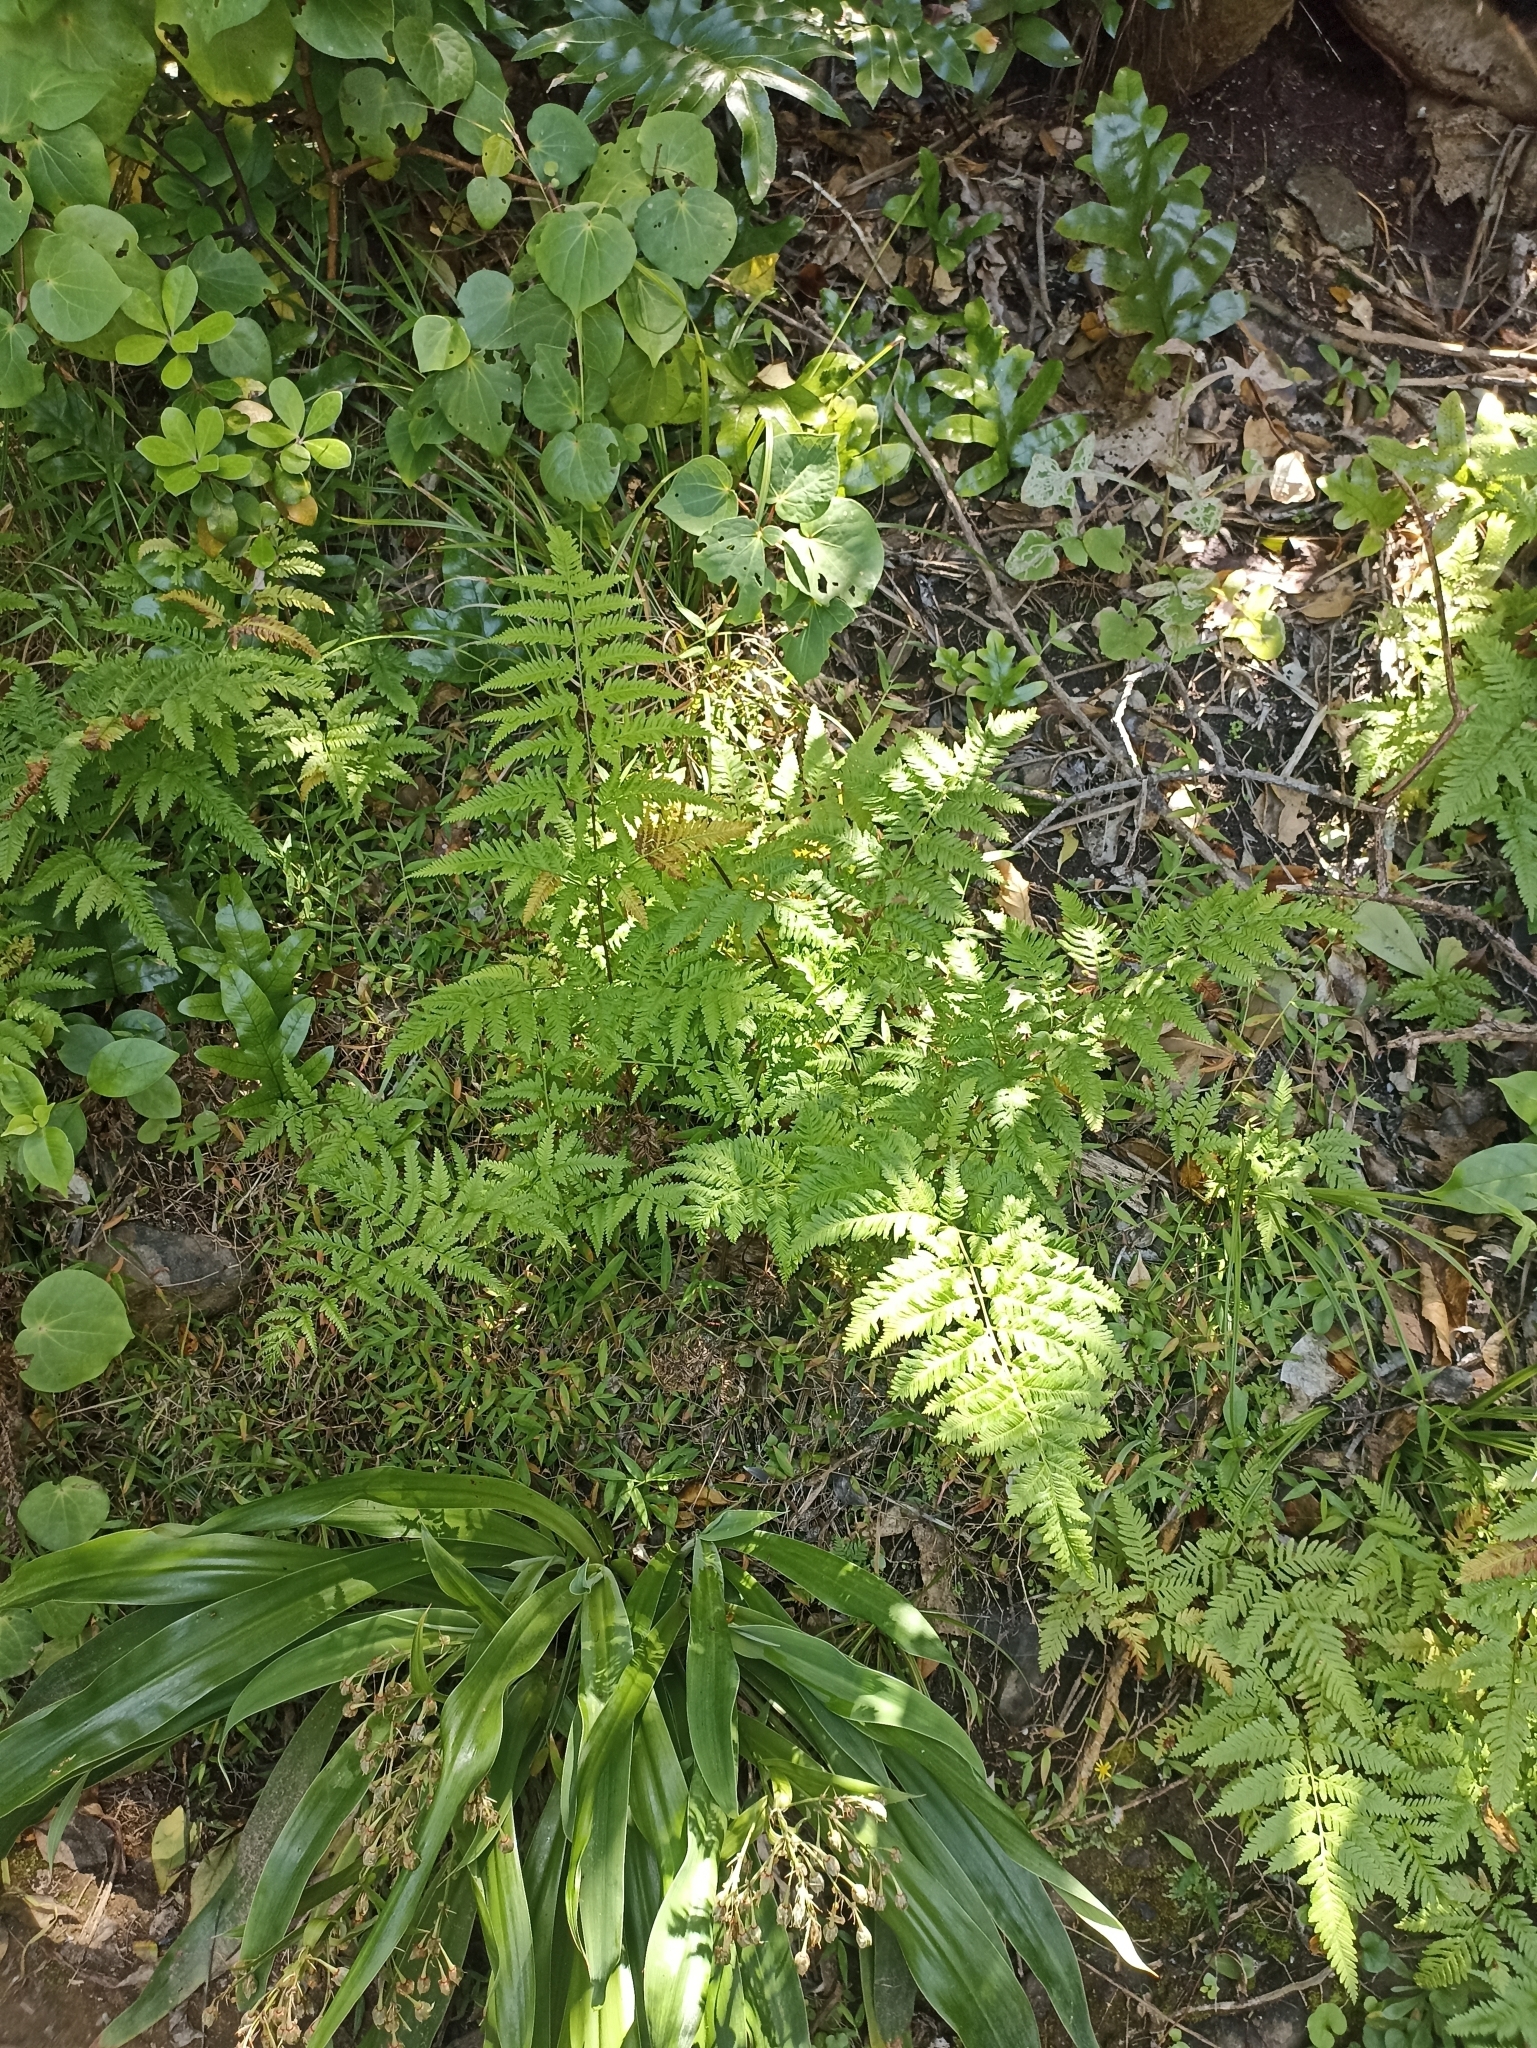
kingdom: Plantae
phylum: Tracheophyta
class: Polypodiopsida
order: Polypodiales
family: Pteridaceae
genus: Pteris
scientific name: Pteris tremula
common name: Australian brake
